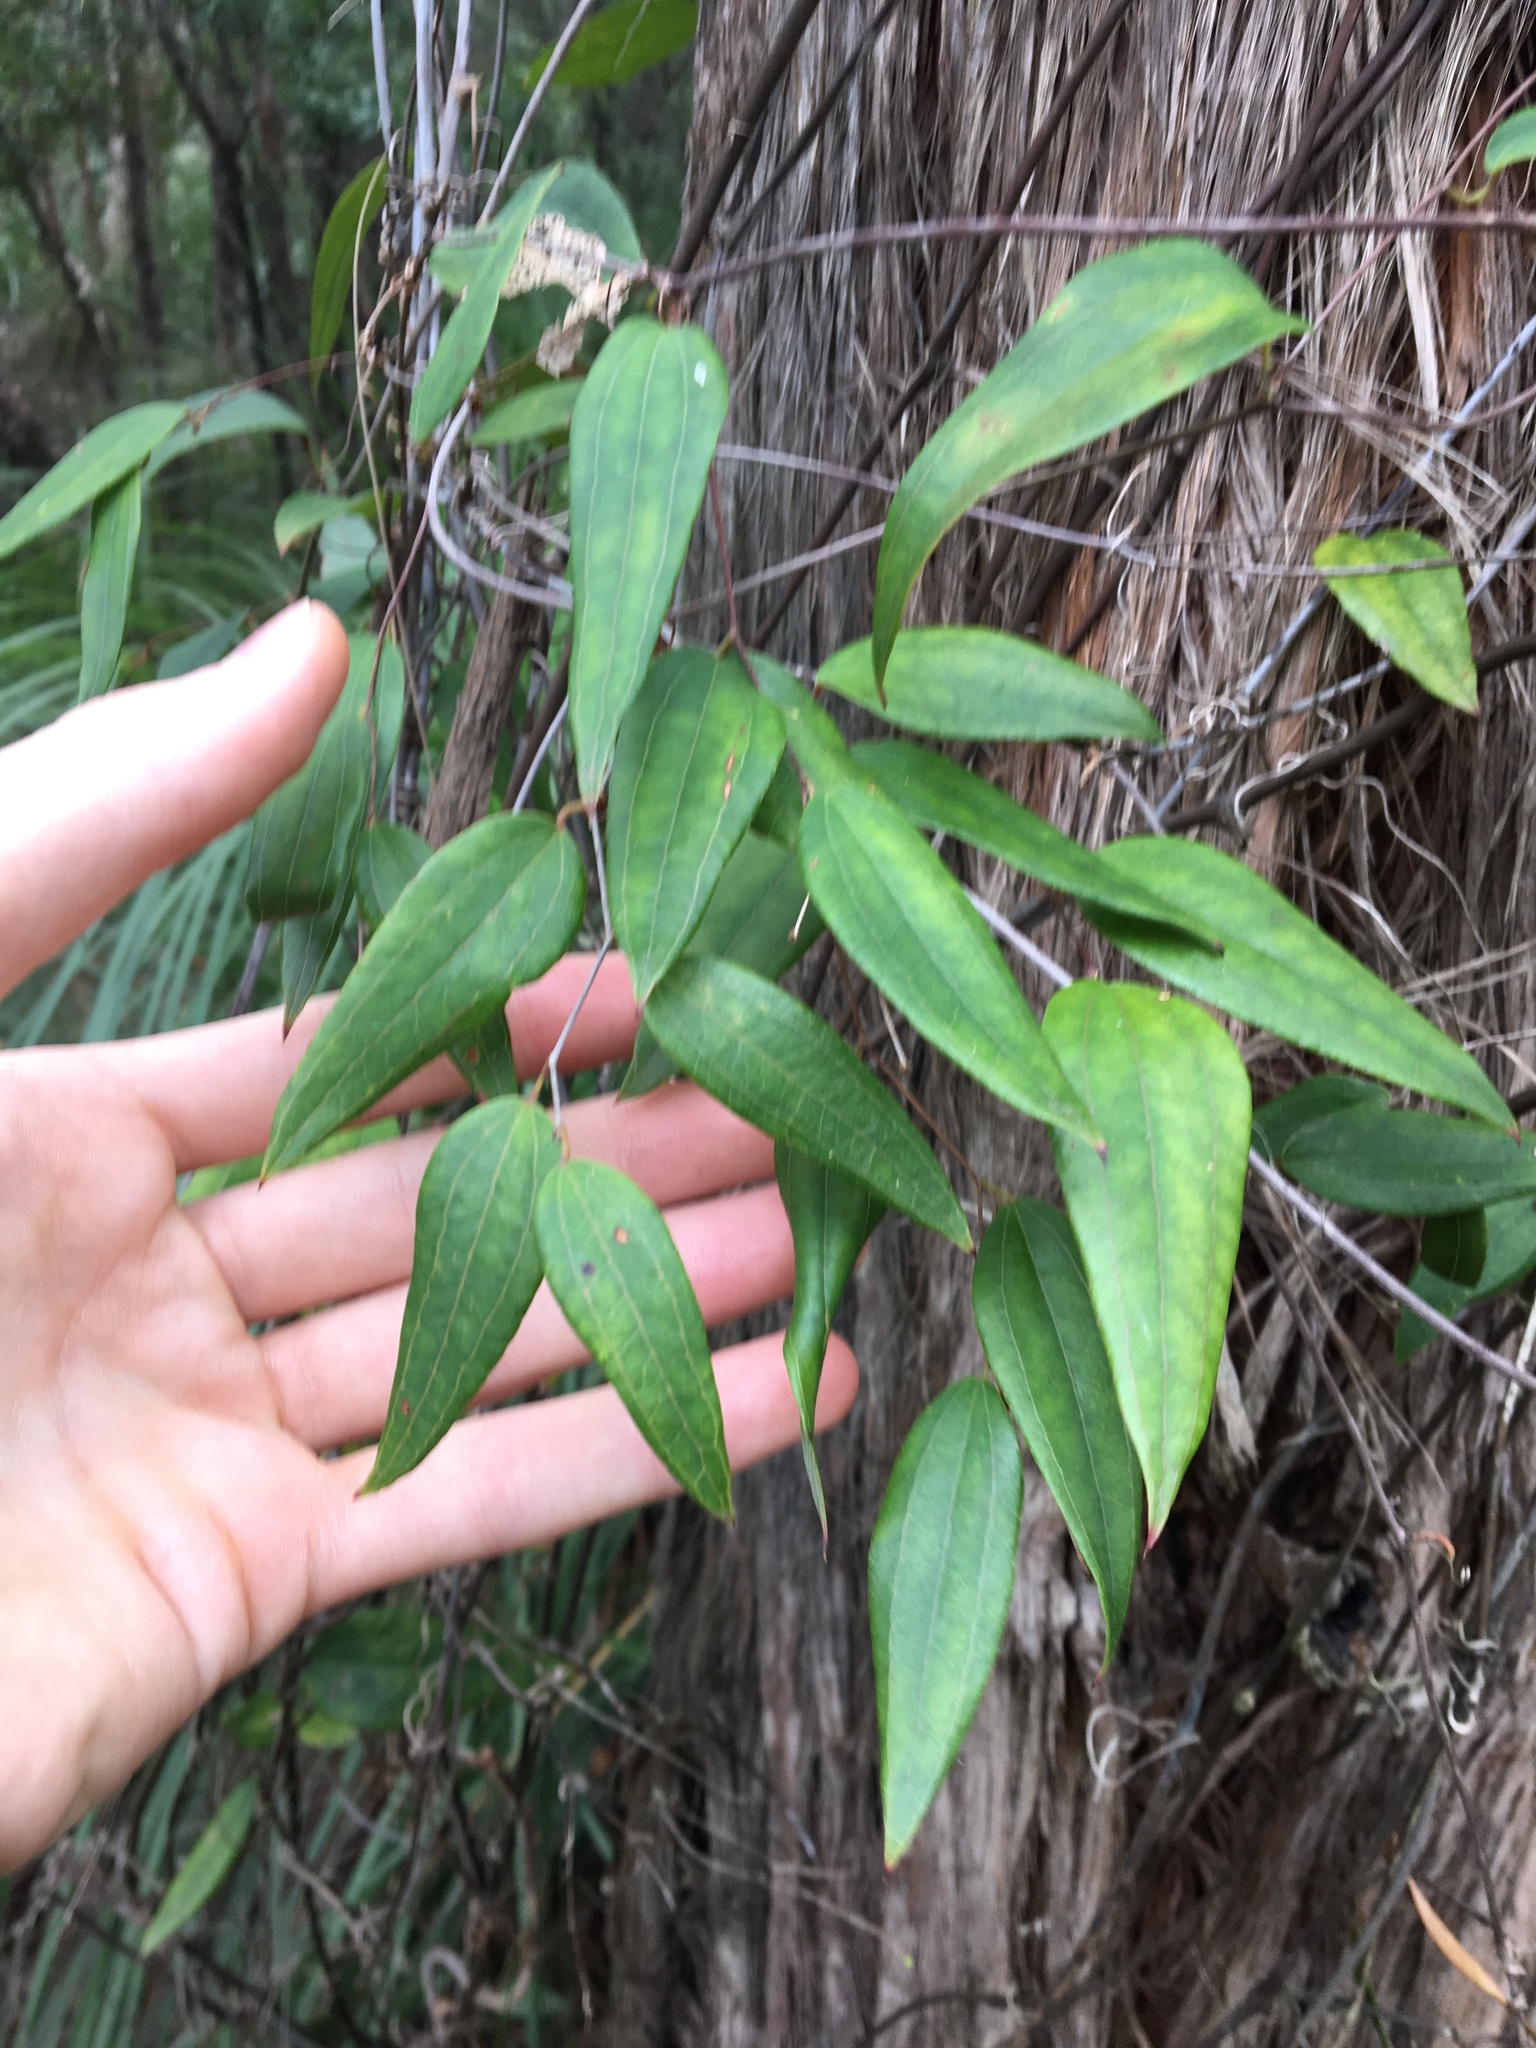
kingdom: Plantae
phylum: Tracheophyta
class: Liliopsida
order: Liliales
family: Smilacaceae
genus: Smilax
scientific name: Smilax glyciphylla
